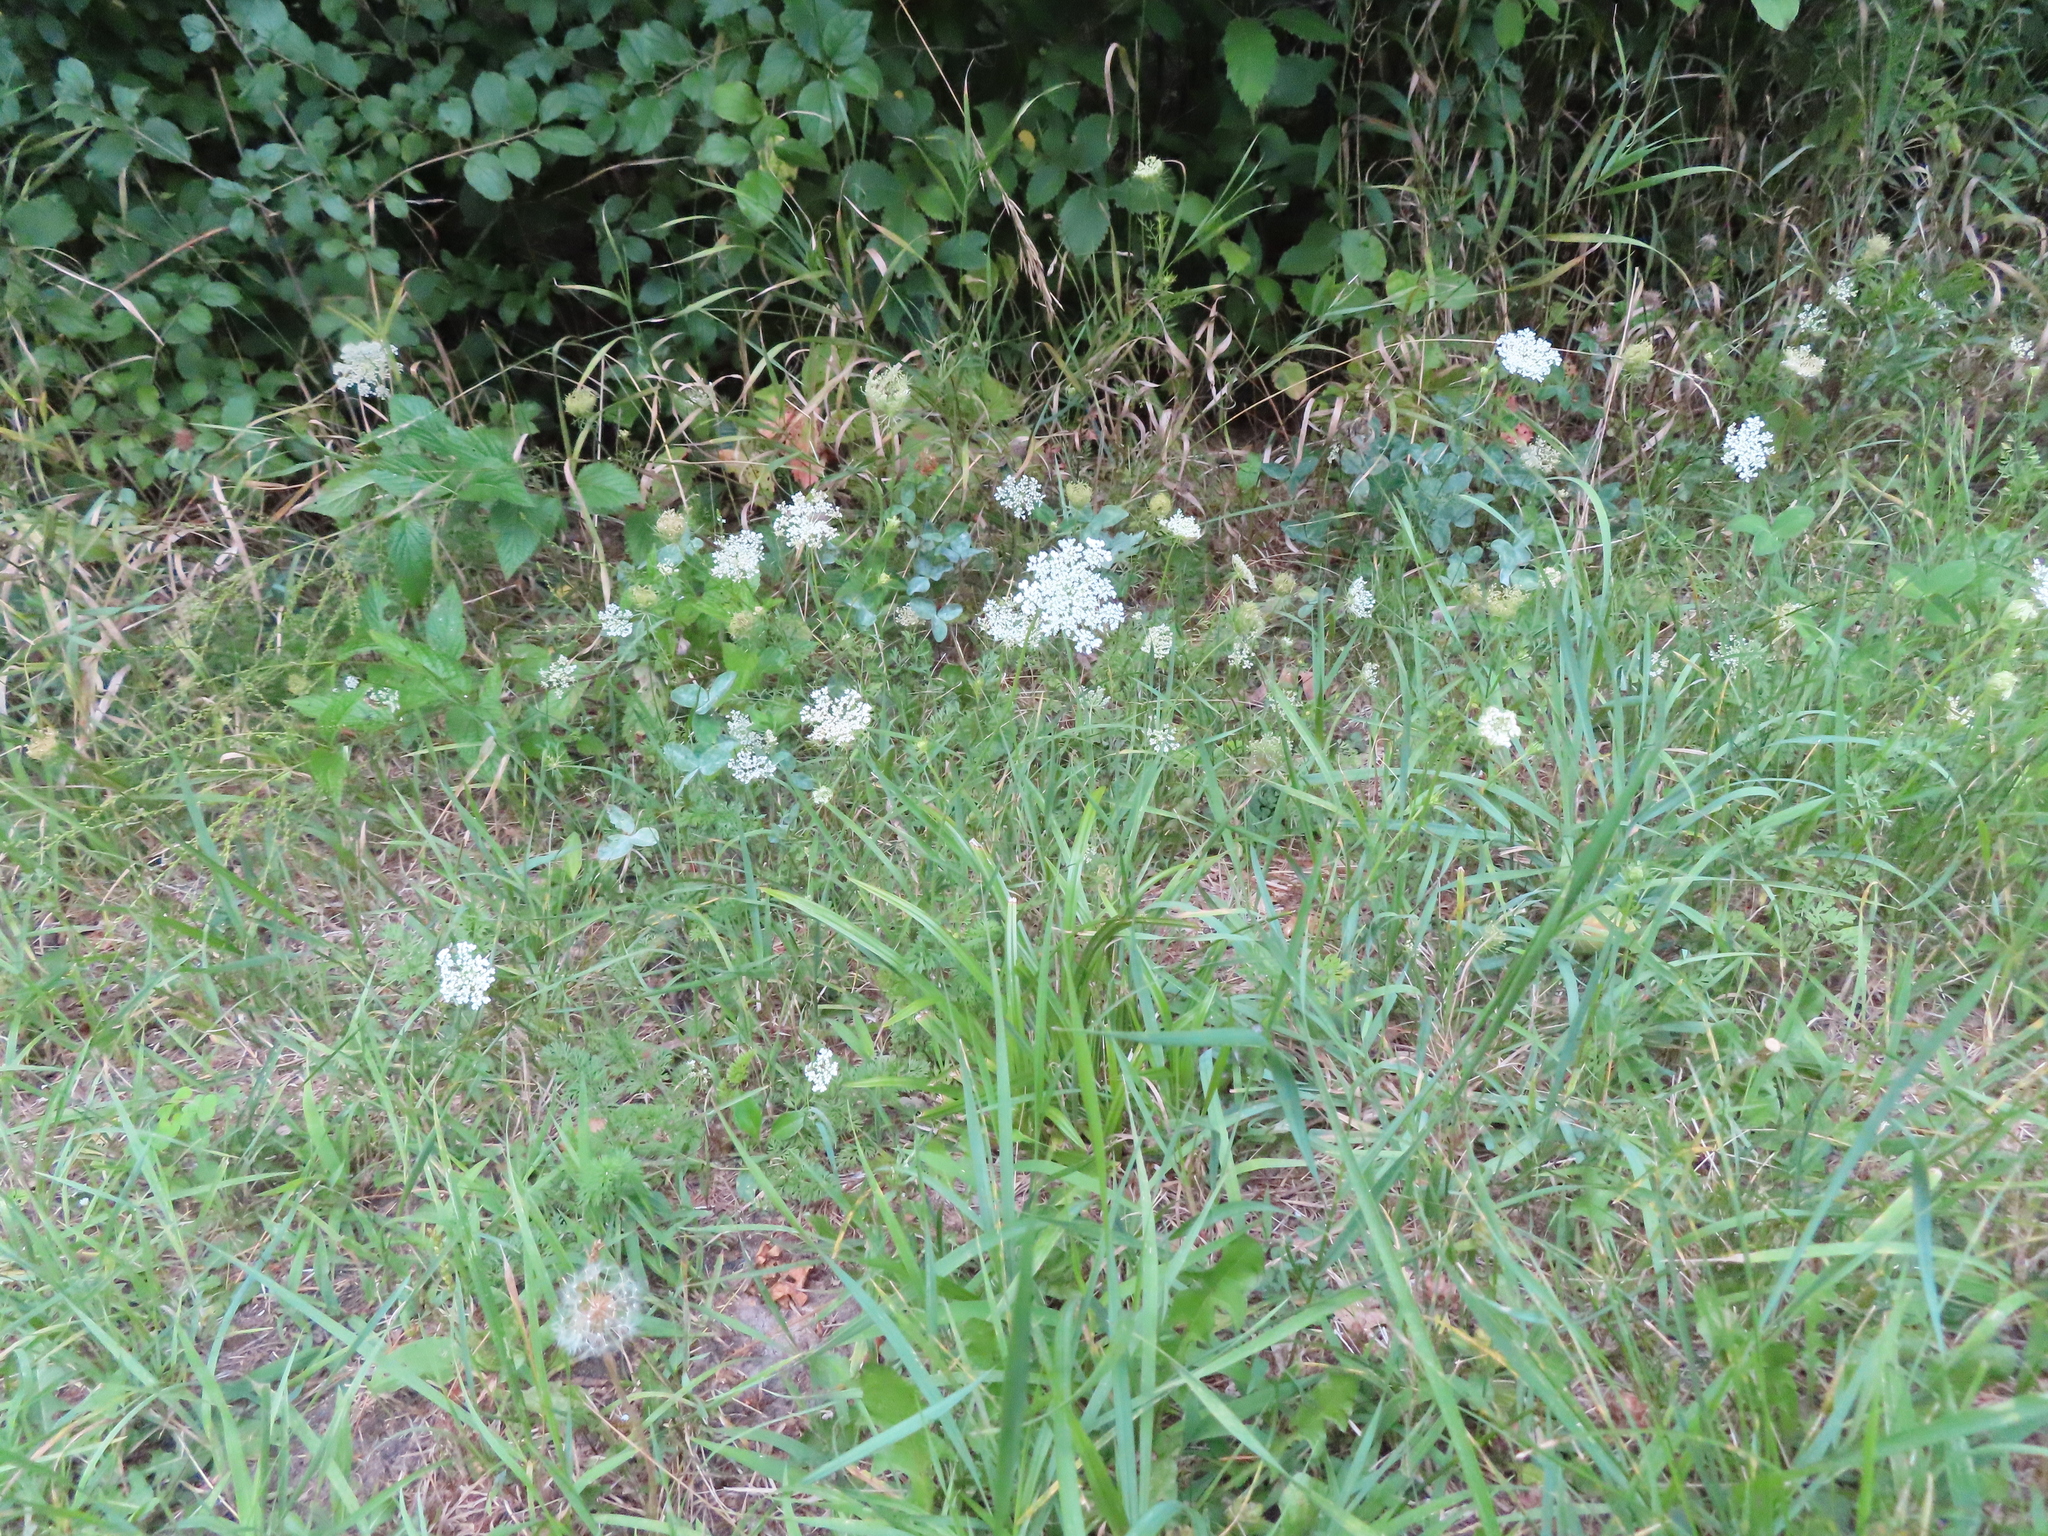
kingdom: Plantae
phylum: Tracheophyta
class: Magnoliopsida
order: Apiales
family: Apiaceae
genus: Daucus
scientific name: Daucus carota
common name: Wild carrot
